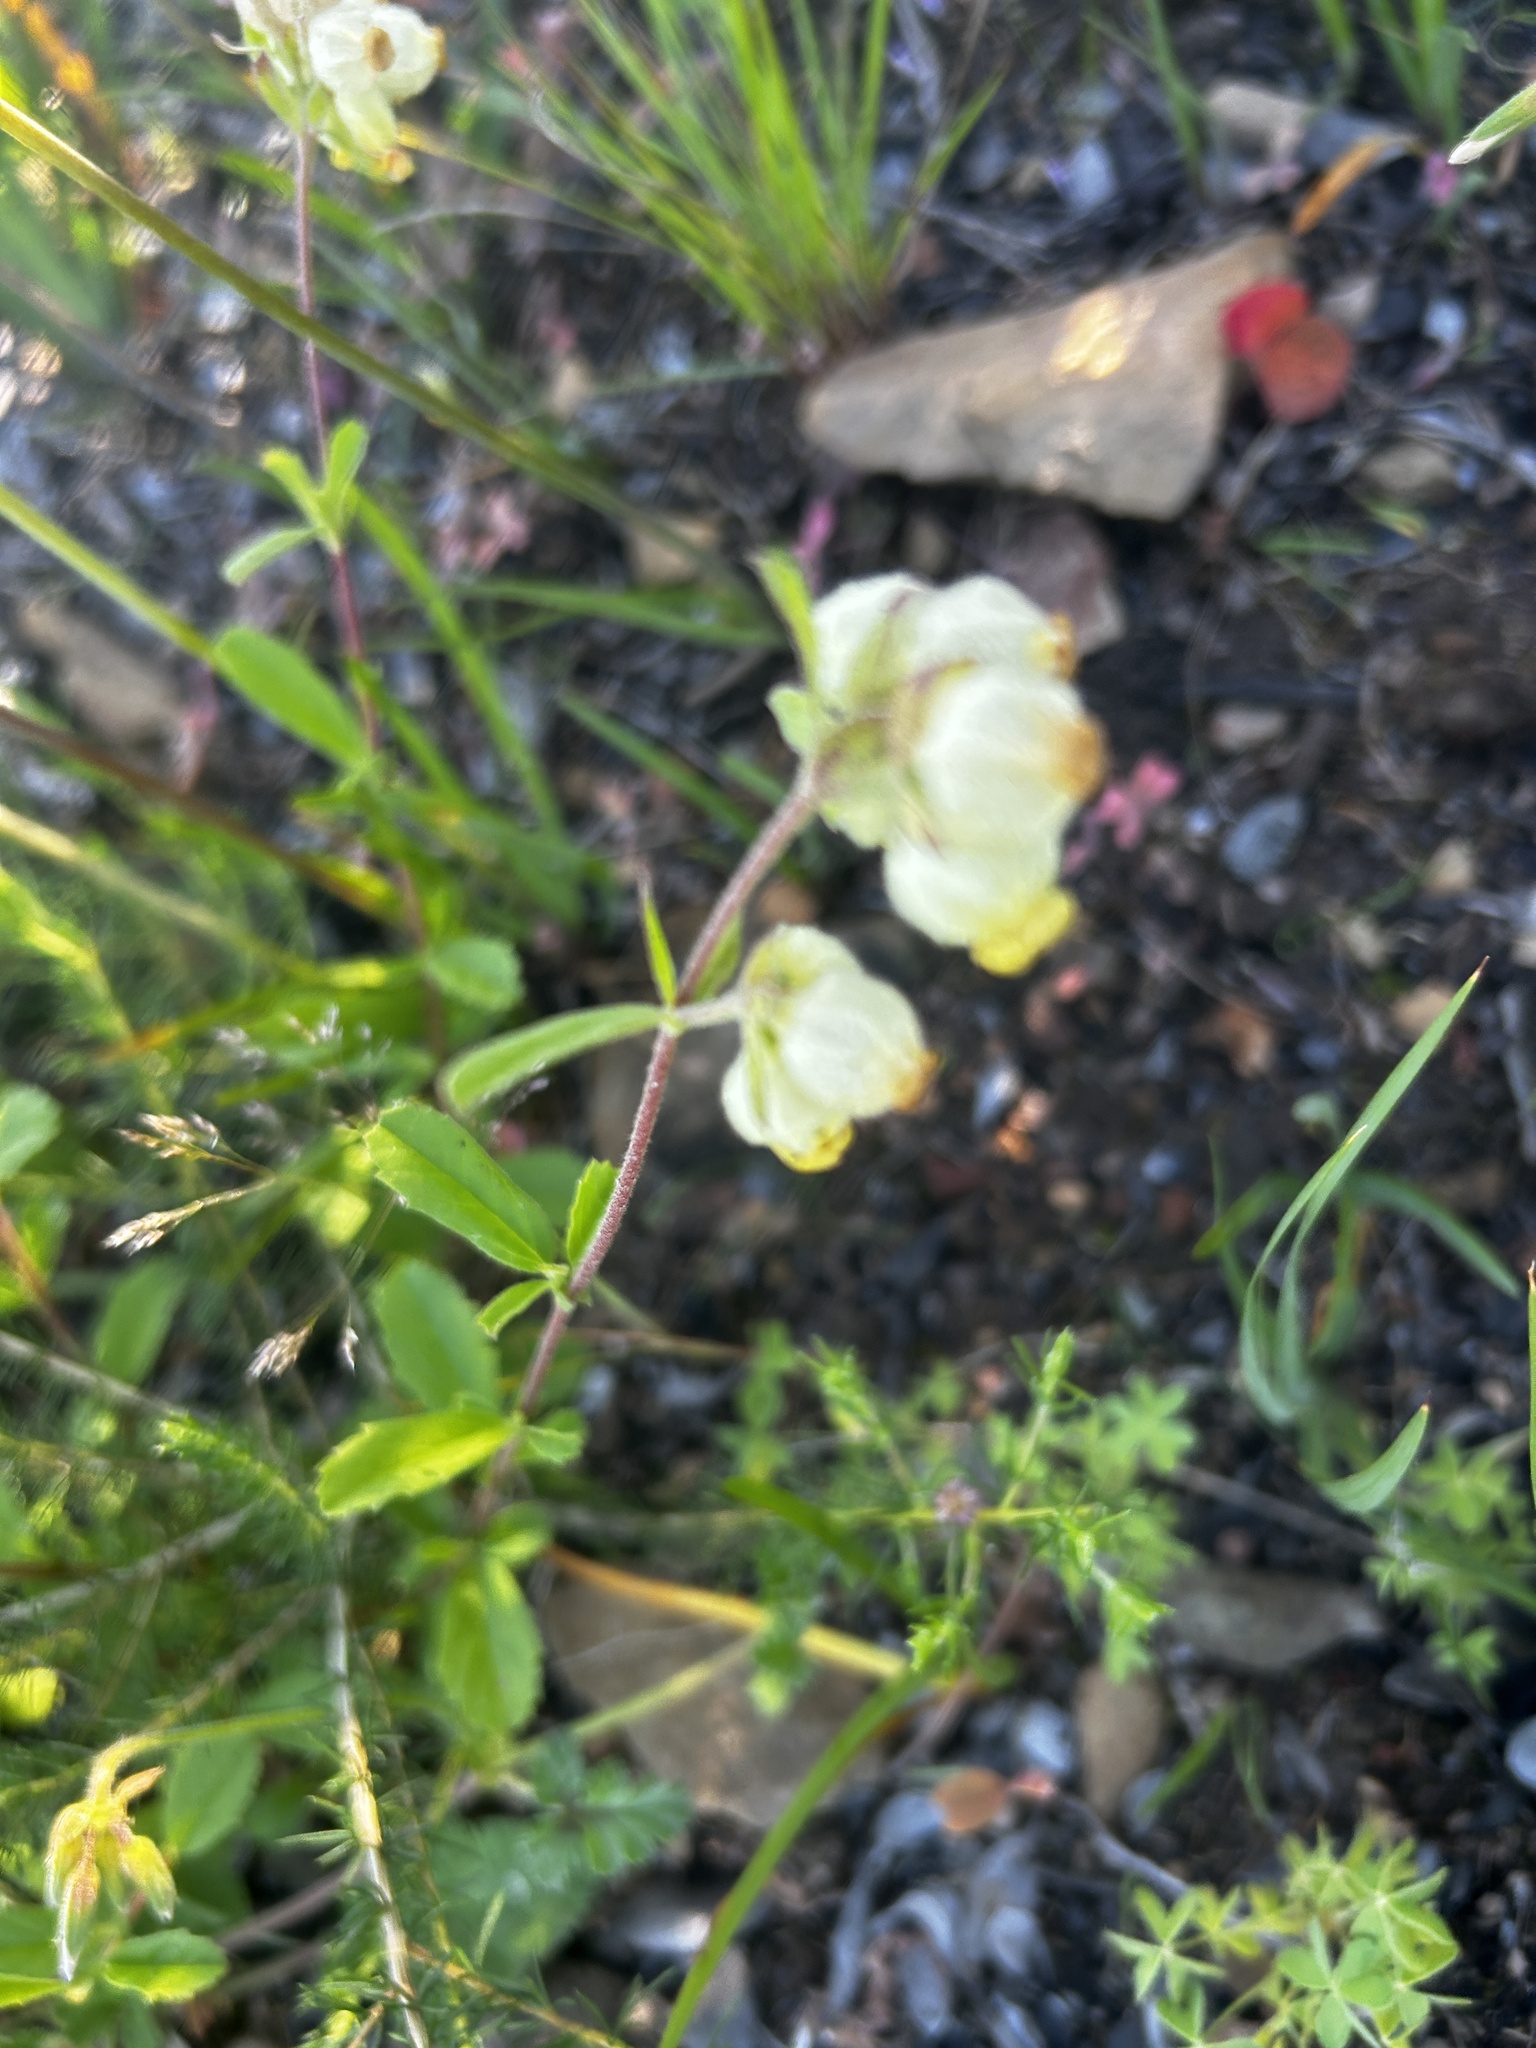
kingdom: Plantae
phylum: Tracheophyta
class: Magnoliopsida
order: Malvales
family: Malvaceae
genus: Hermannia
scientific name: Hermannia hyssopifolia
